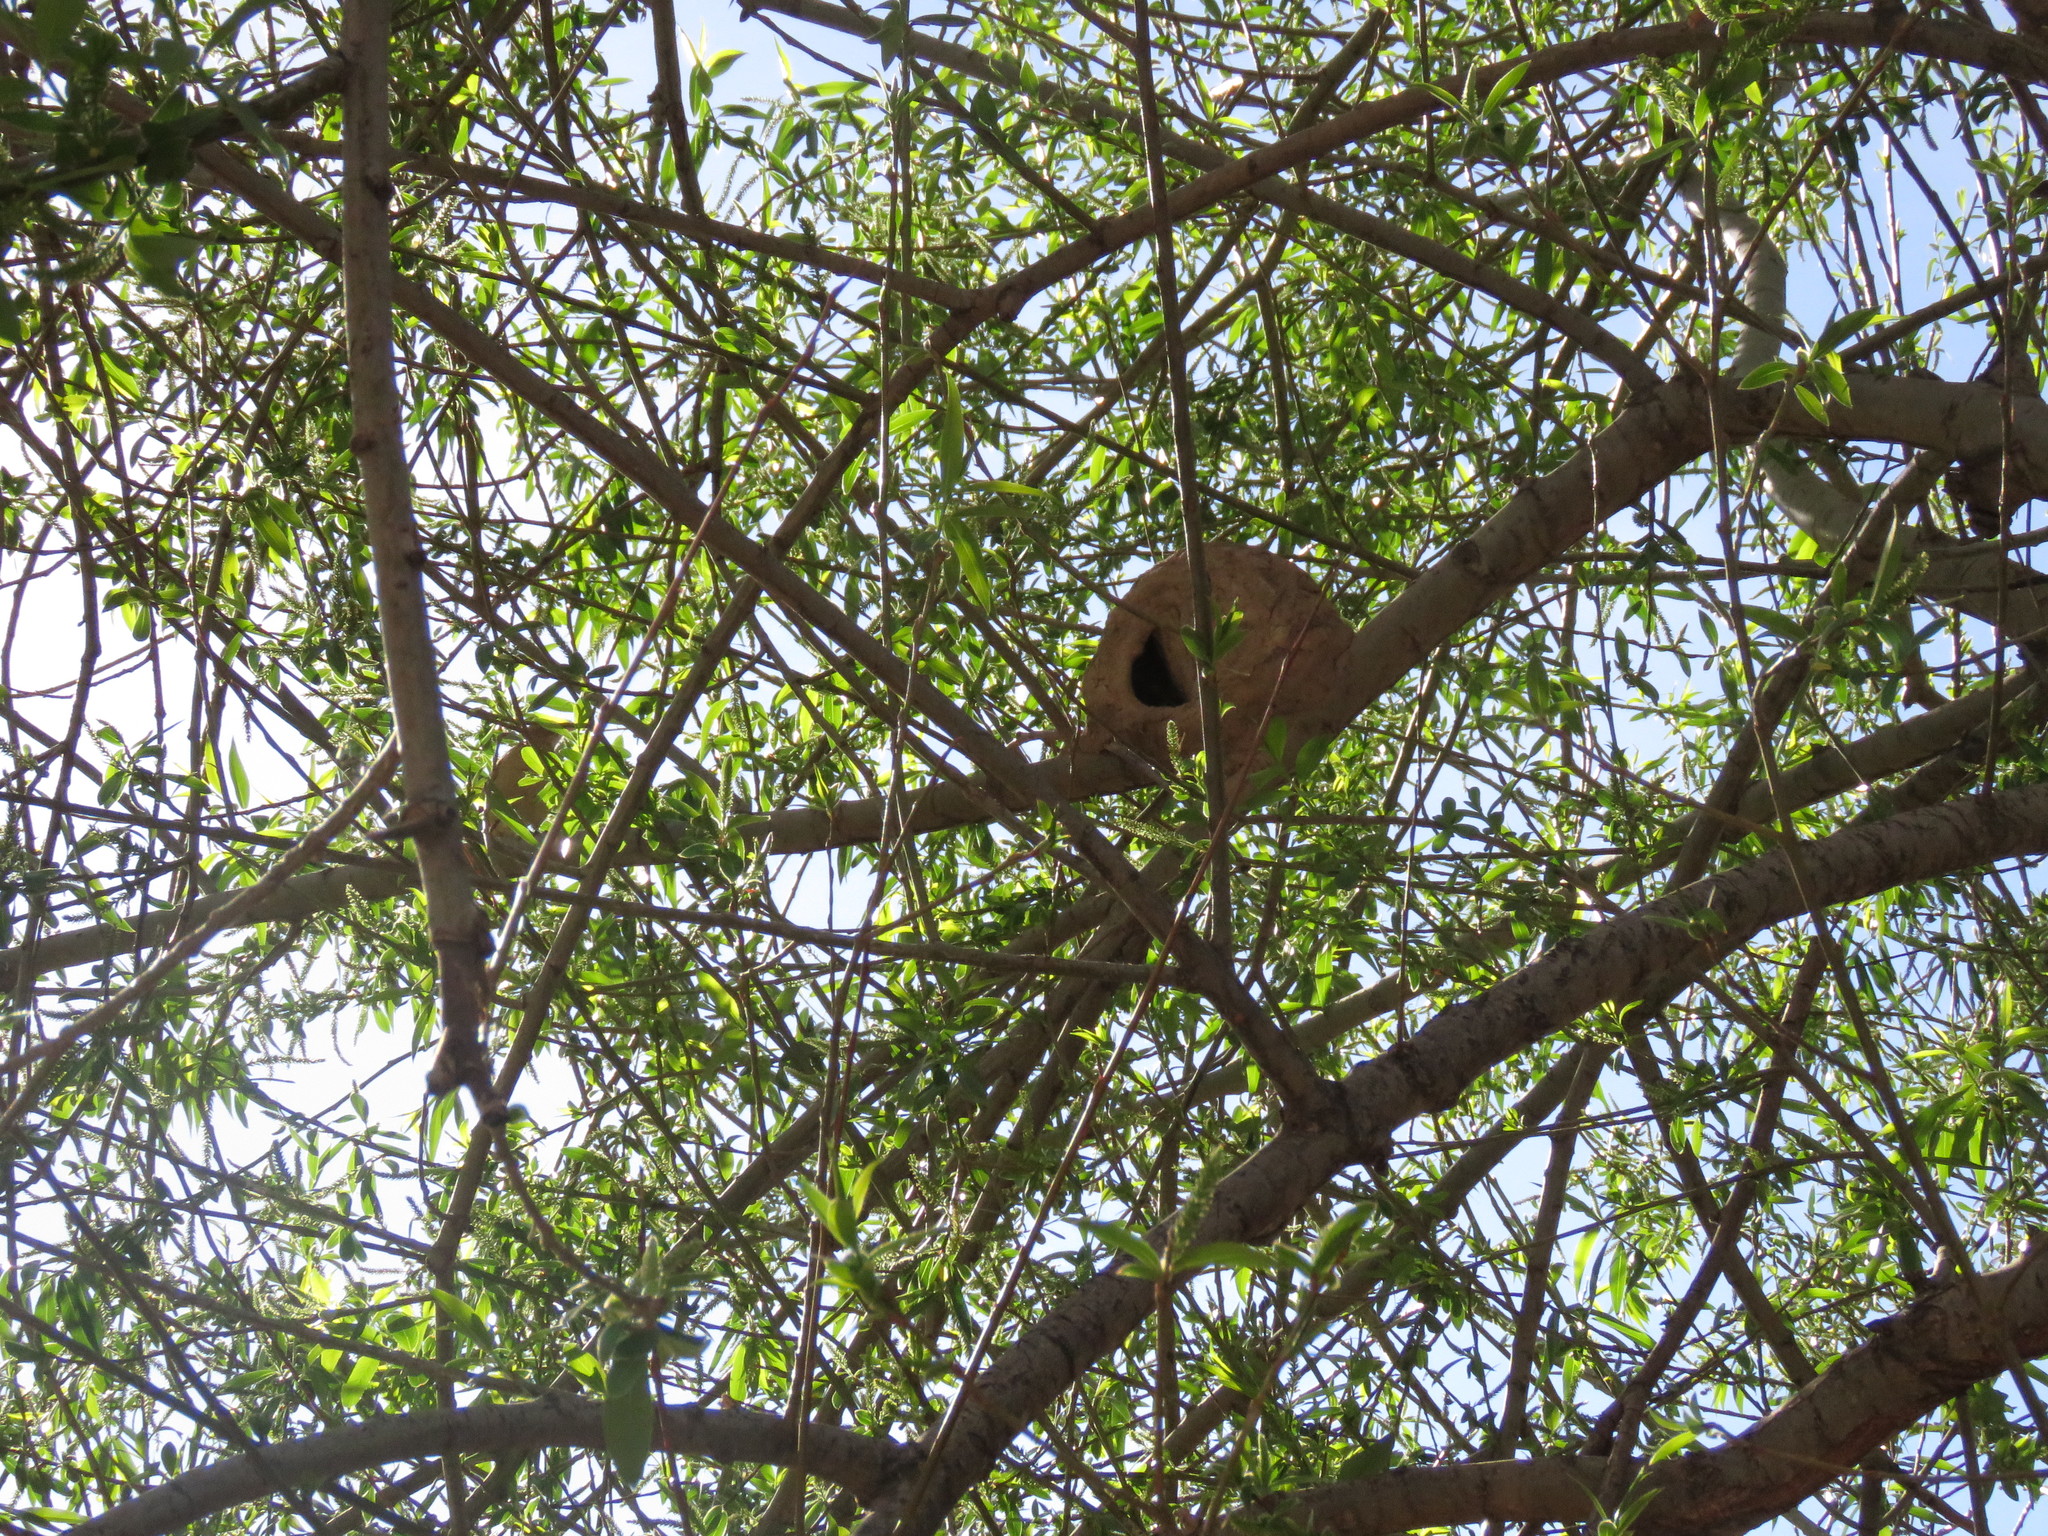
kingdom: Animalia
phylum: Chordata
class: Aves
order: Passeriformes
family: Furnariidae
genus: Furnarius
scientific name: Furnarius rufus
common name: Rufous hornero
